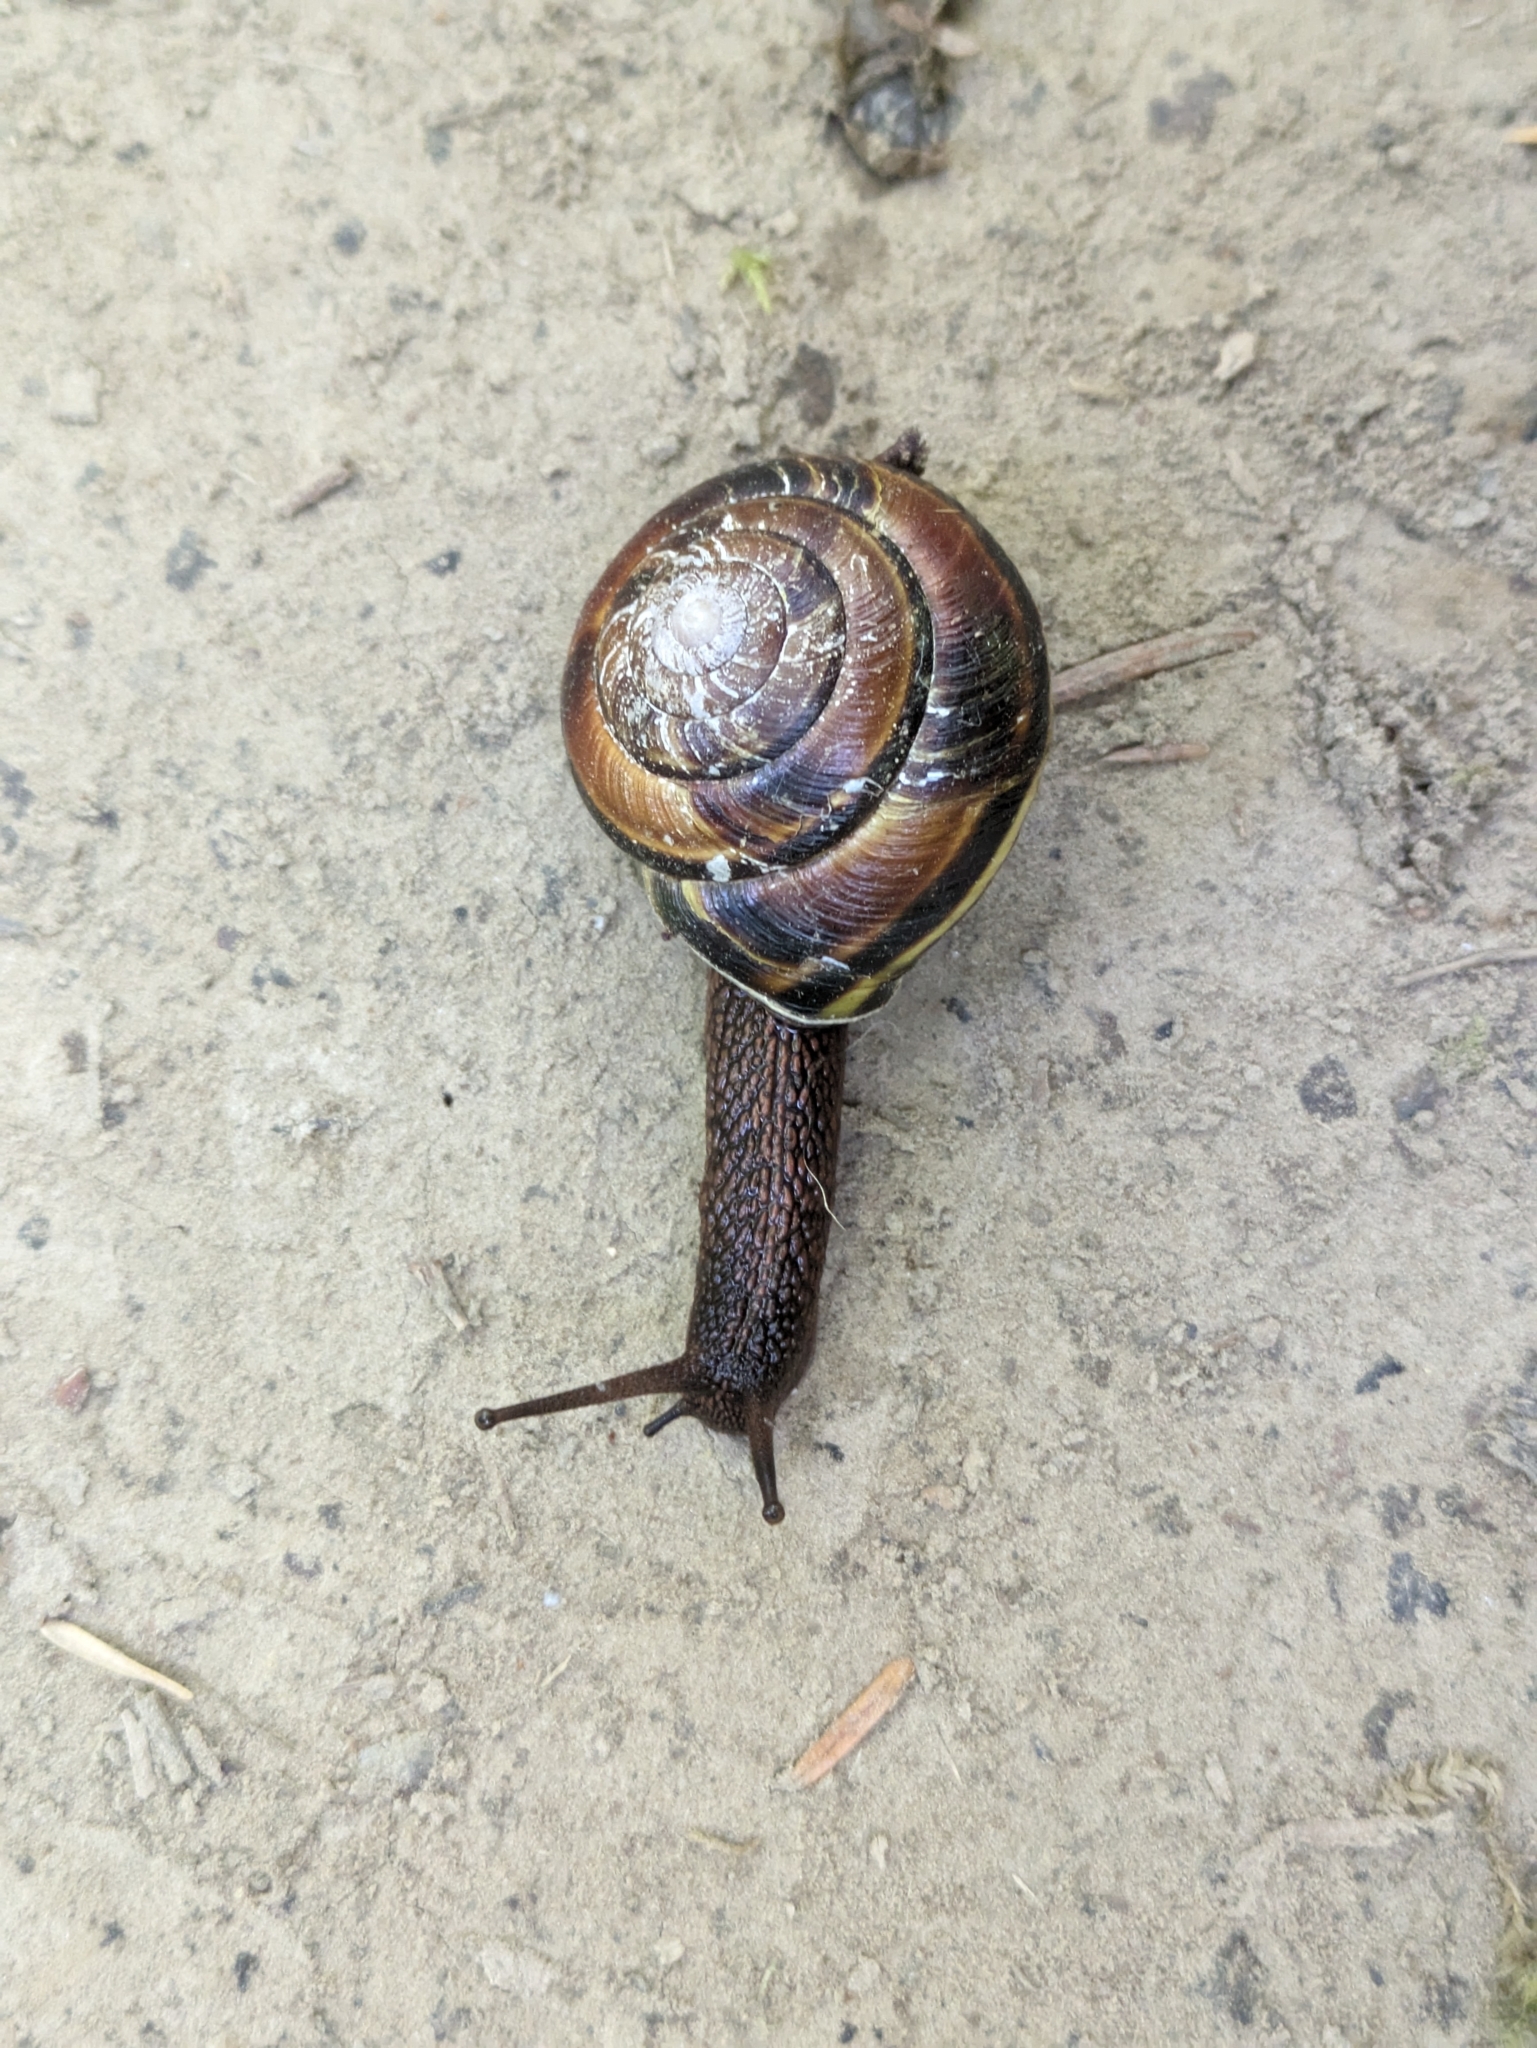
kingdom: Animalia
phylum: Mollusca
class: Gastropoda
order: Stylommatophora
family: Xanthonychidae
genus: Monadenia
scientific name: Monadenia fidelis
